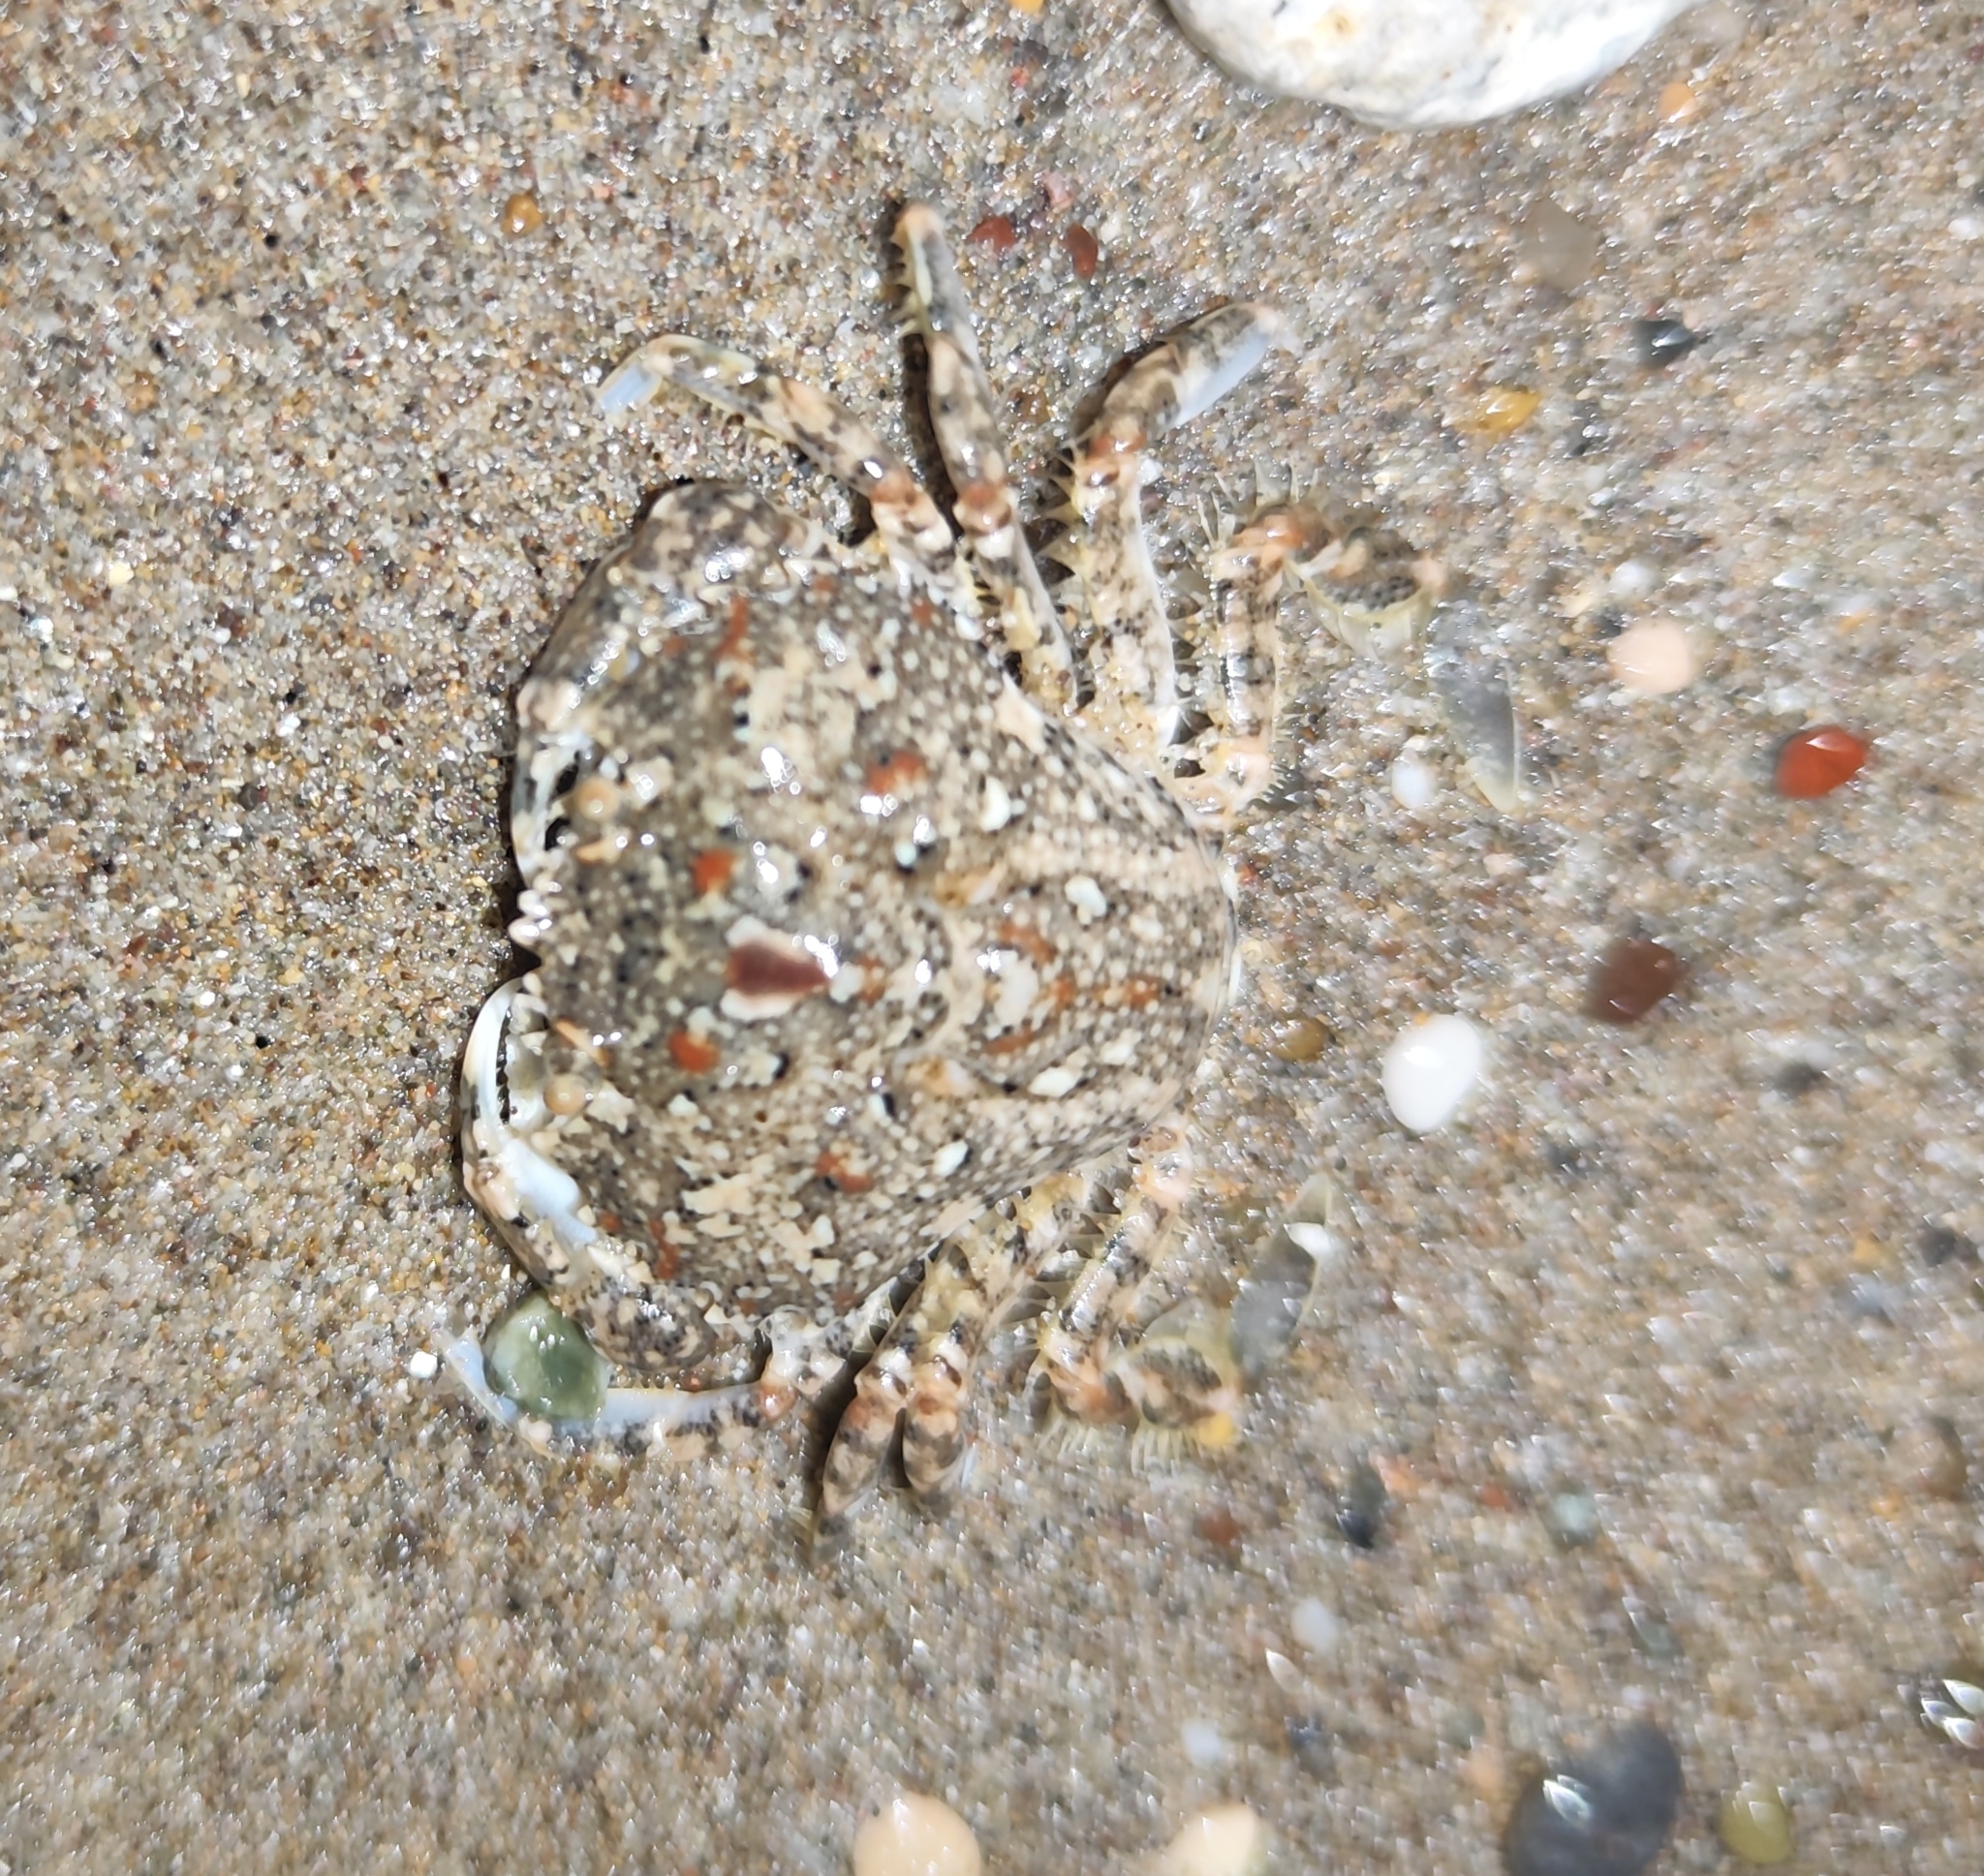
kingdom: Animalia
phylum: Arthropoda
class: Malacostraca
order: Decapoda
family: Carcinidae
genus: Portumnus
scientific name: Portumnus latipes
